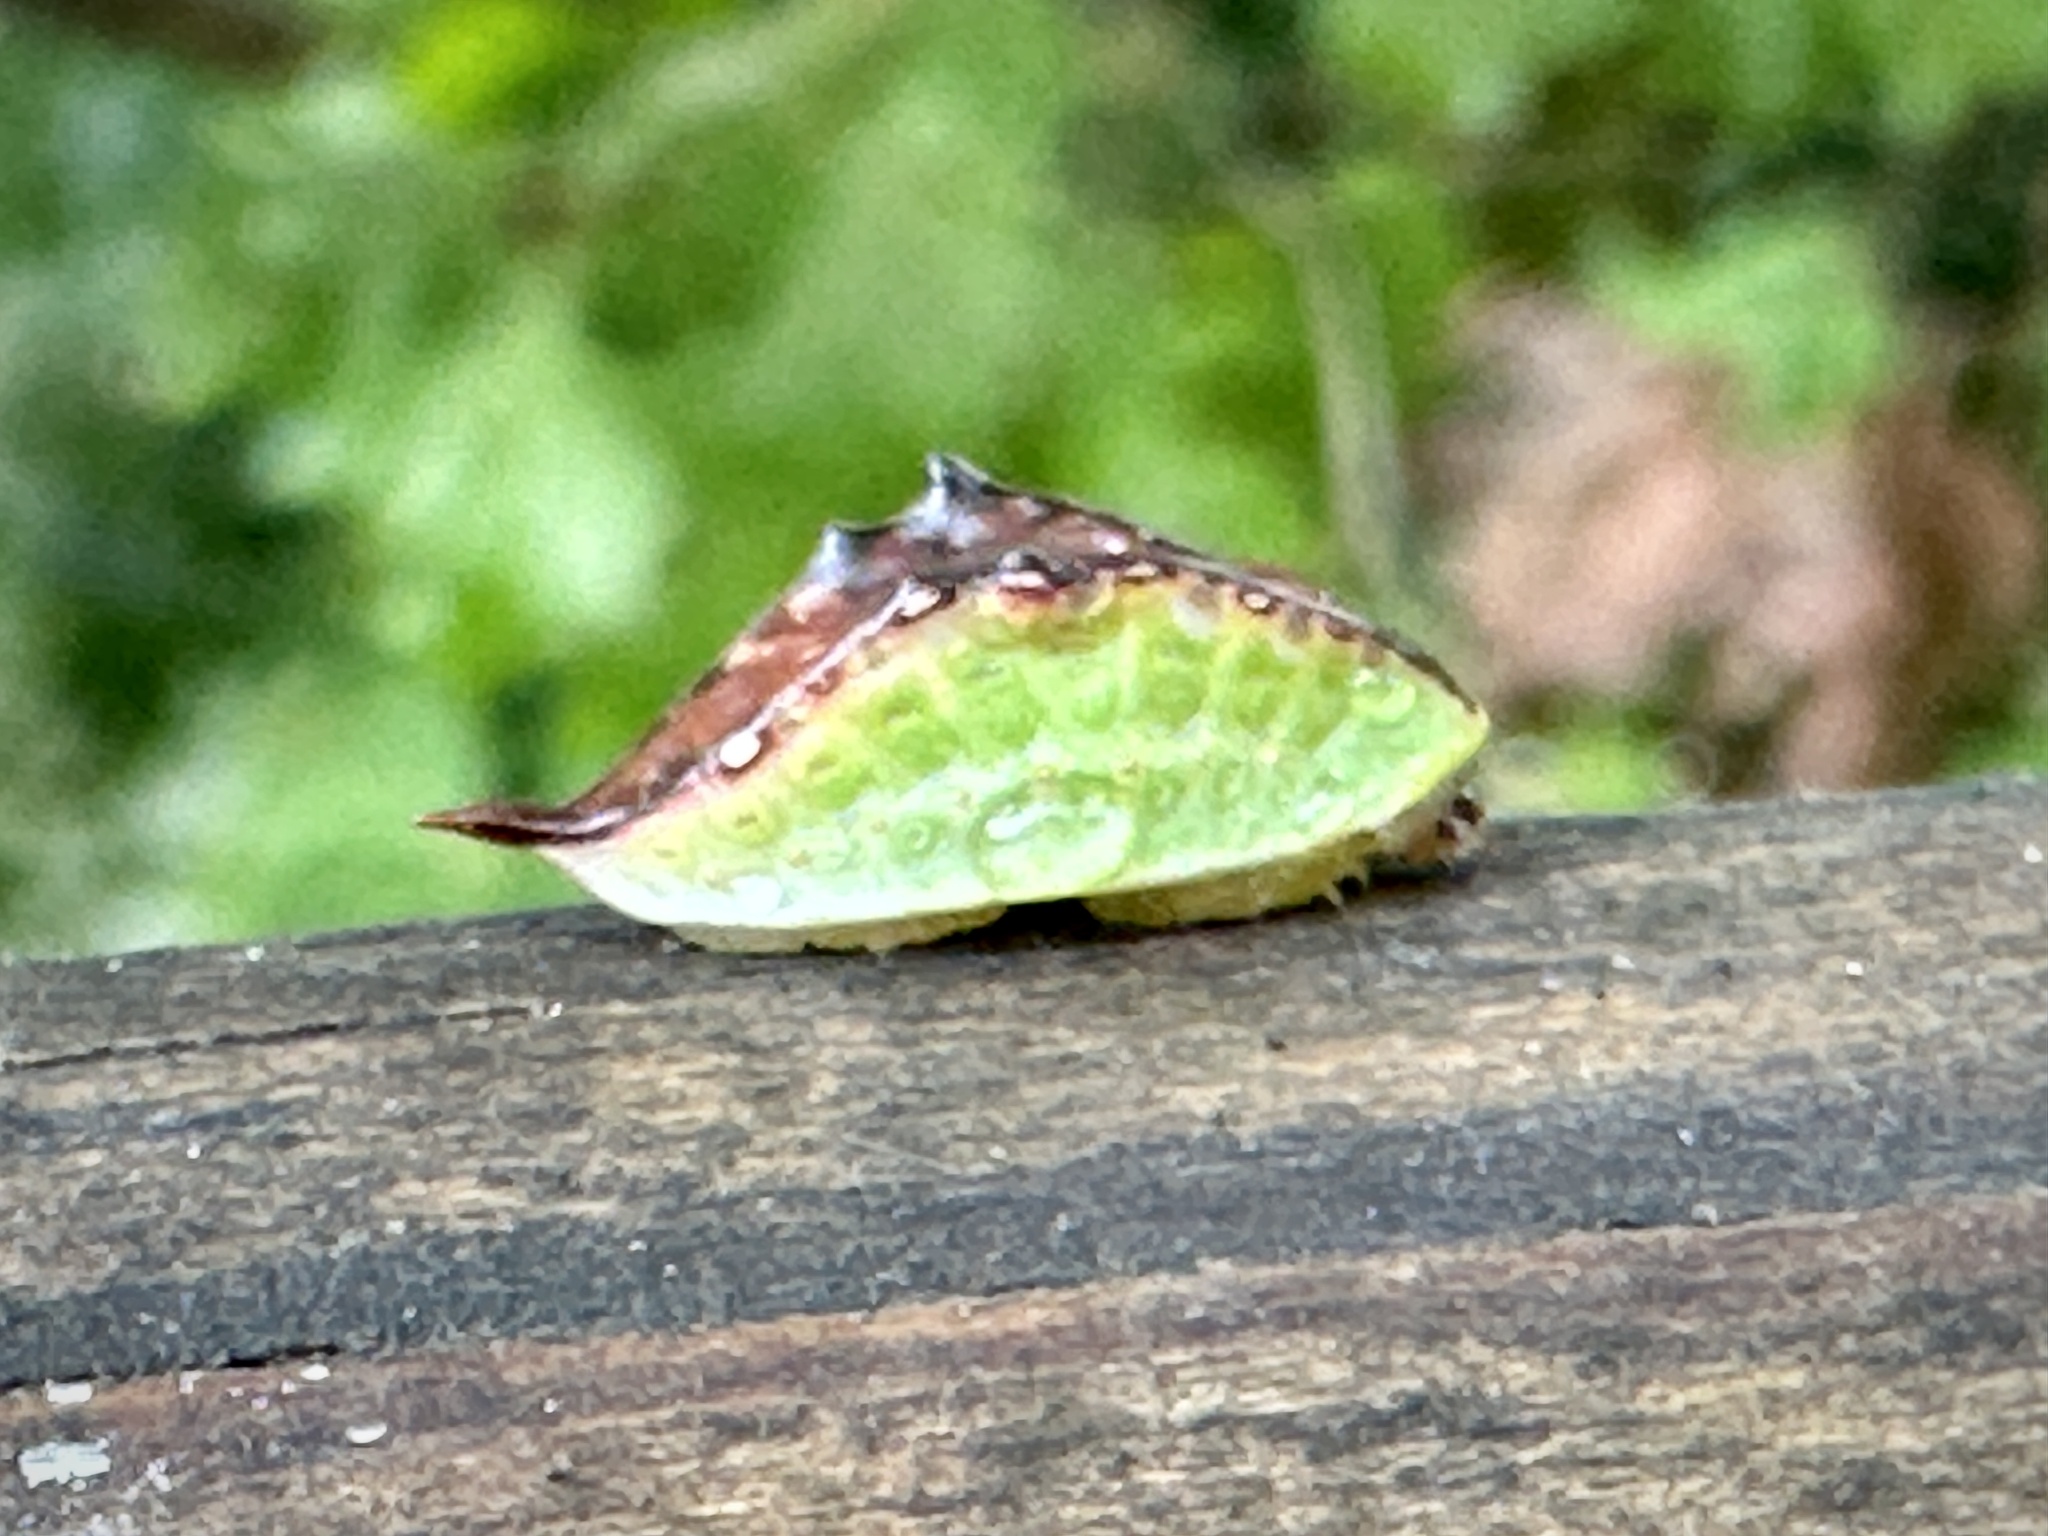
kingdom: Animalia
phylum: Arthropoda
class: Insecta
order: Lepidoptera
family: Limacodidae
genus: Prolimacodes
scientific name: Prolimacodes badia
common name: Skiff moth
